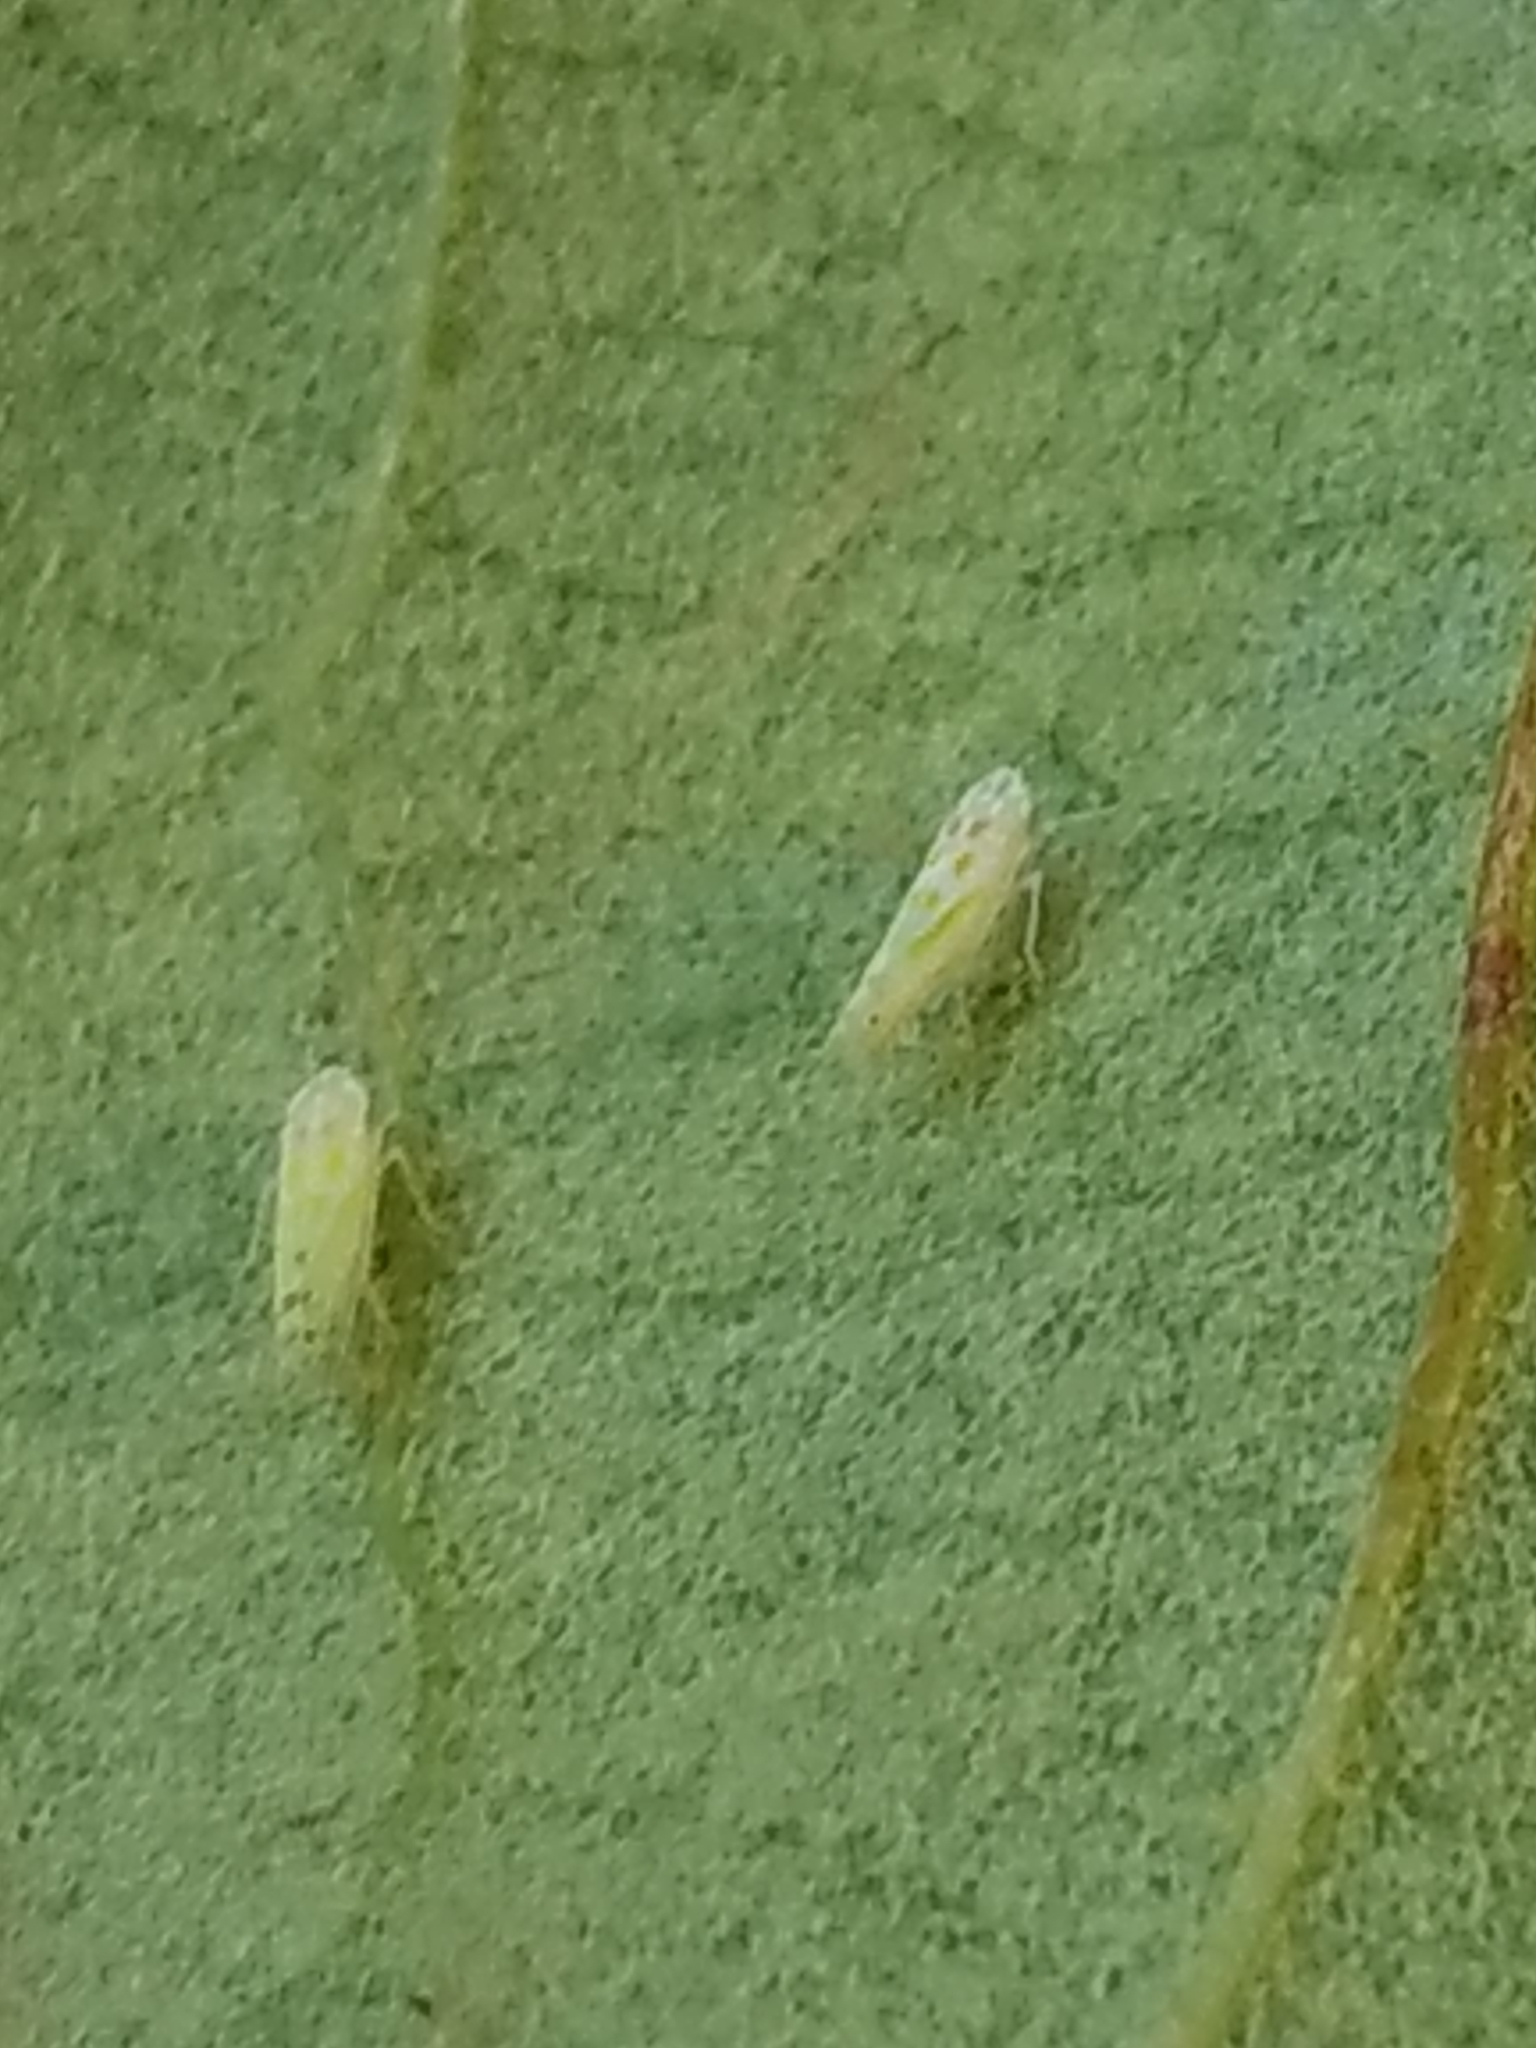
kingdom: Animalia
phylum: Arthropoda
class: Insecta
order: Hemiptera
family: Cicadellidae
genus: Alconeura
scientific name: Alconeura quadrimaculata
